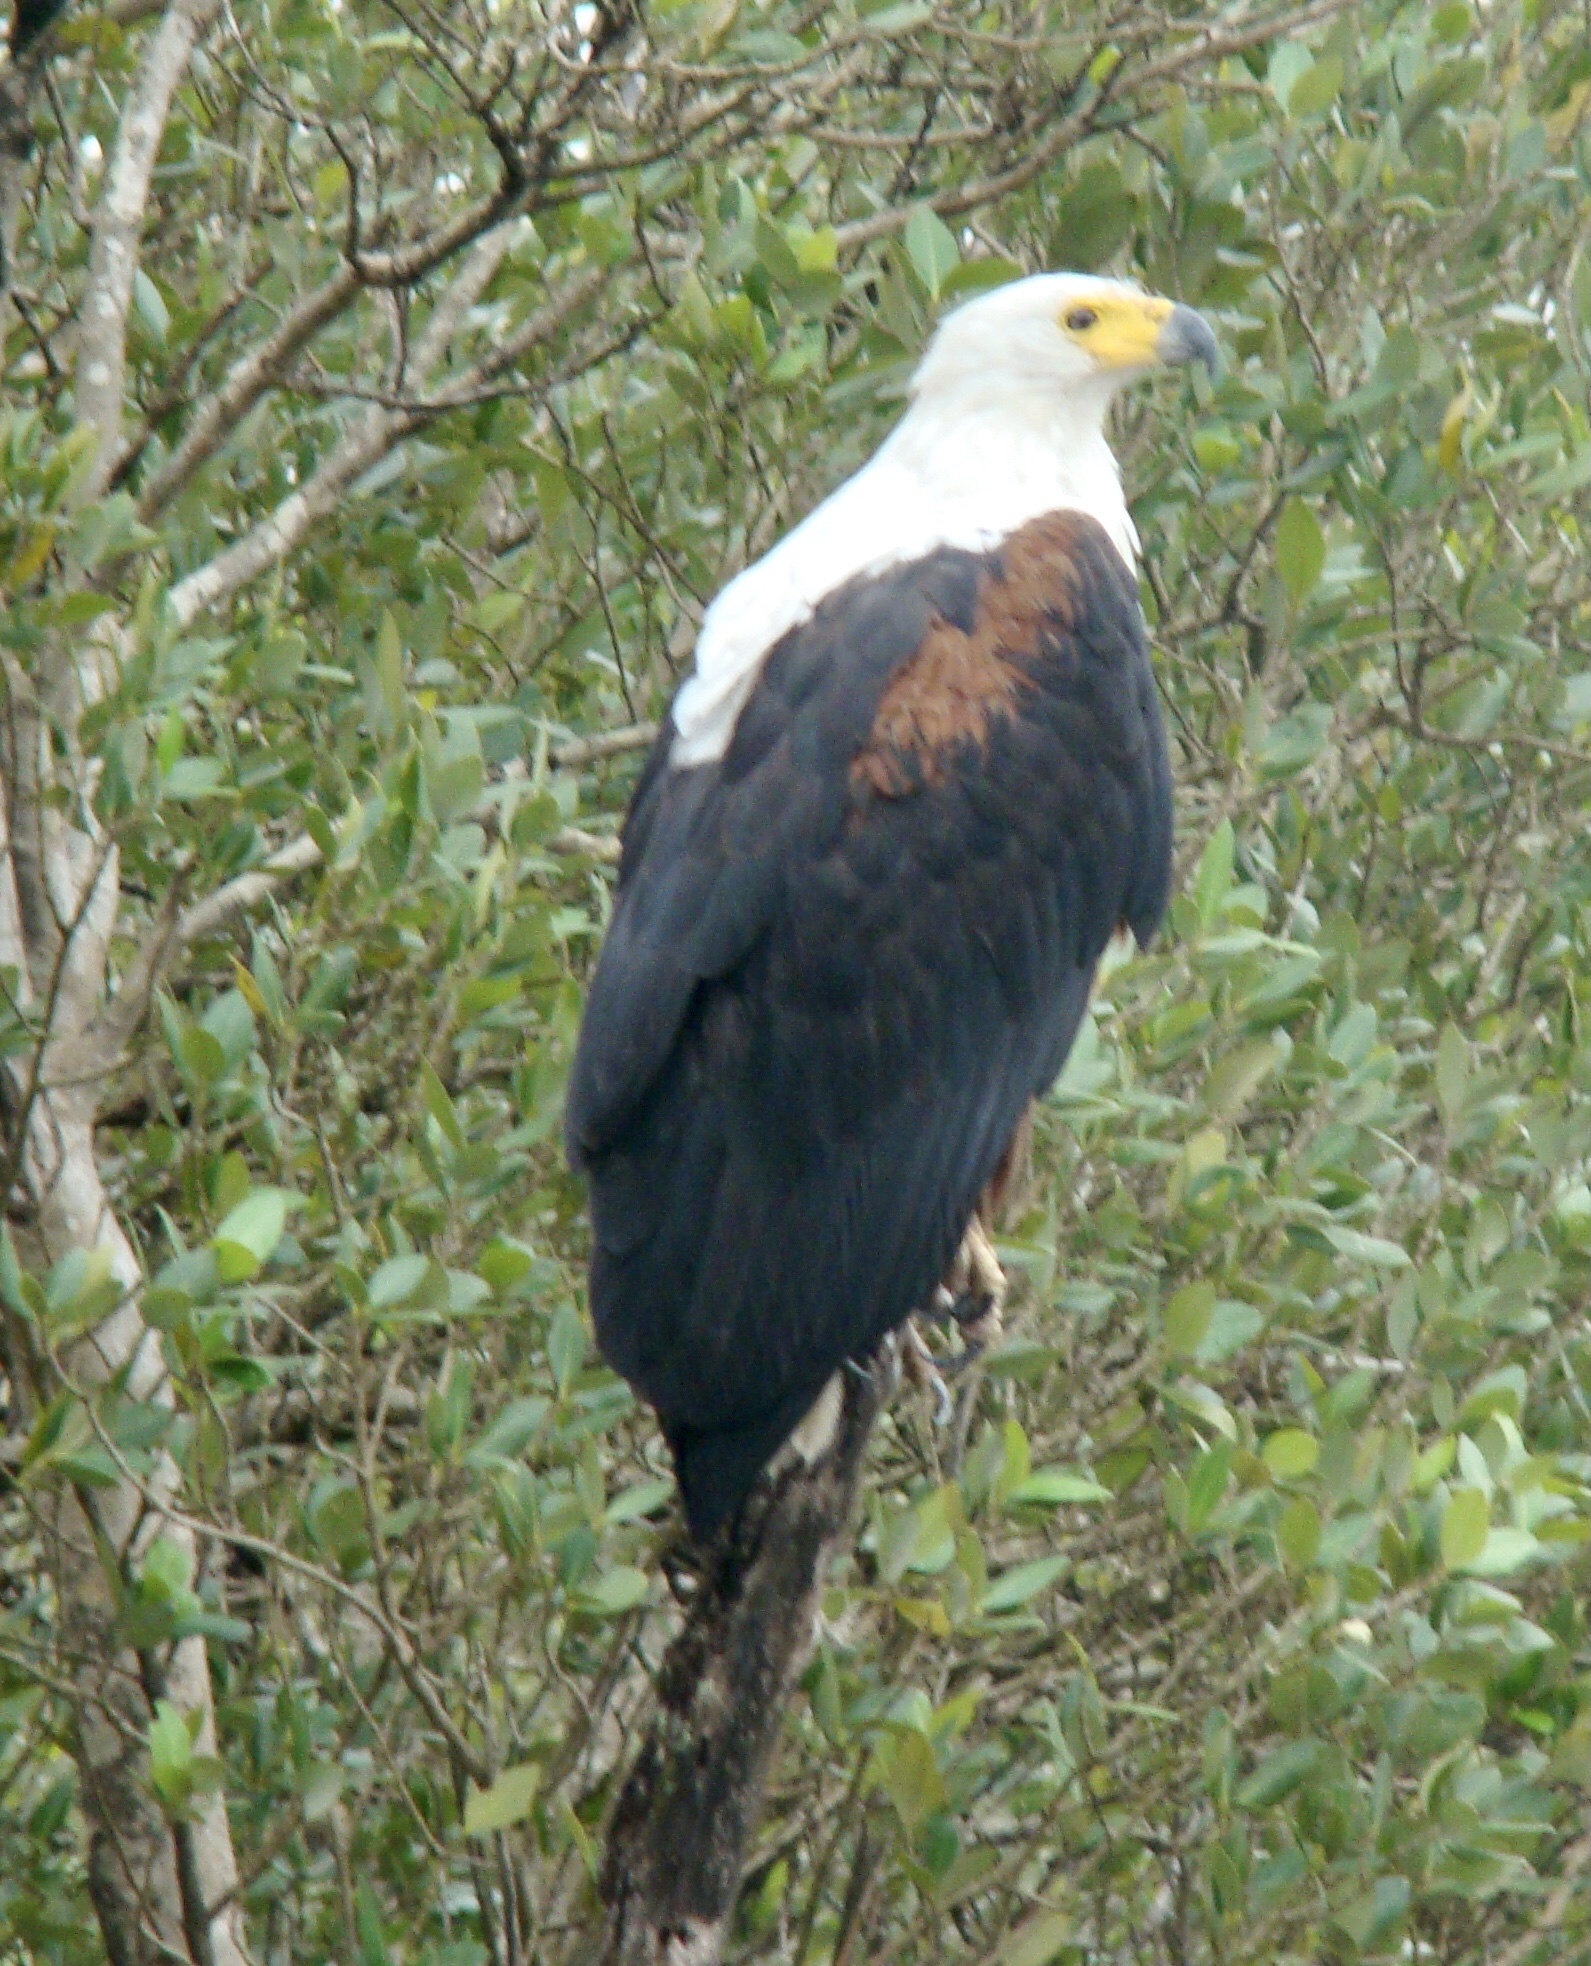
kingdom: Animalia
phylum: Chordata
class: Aves
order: Accipitriformes
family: Accipitridae
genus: Haliaeetus
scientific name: Haliaeetus vocifer
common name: African fish eagle
